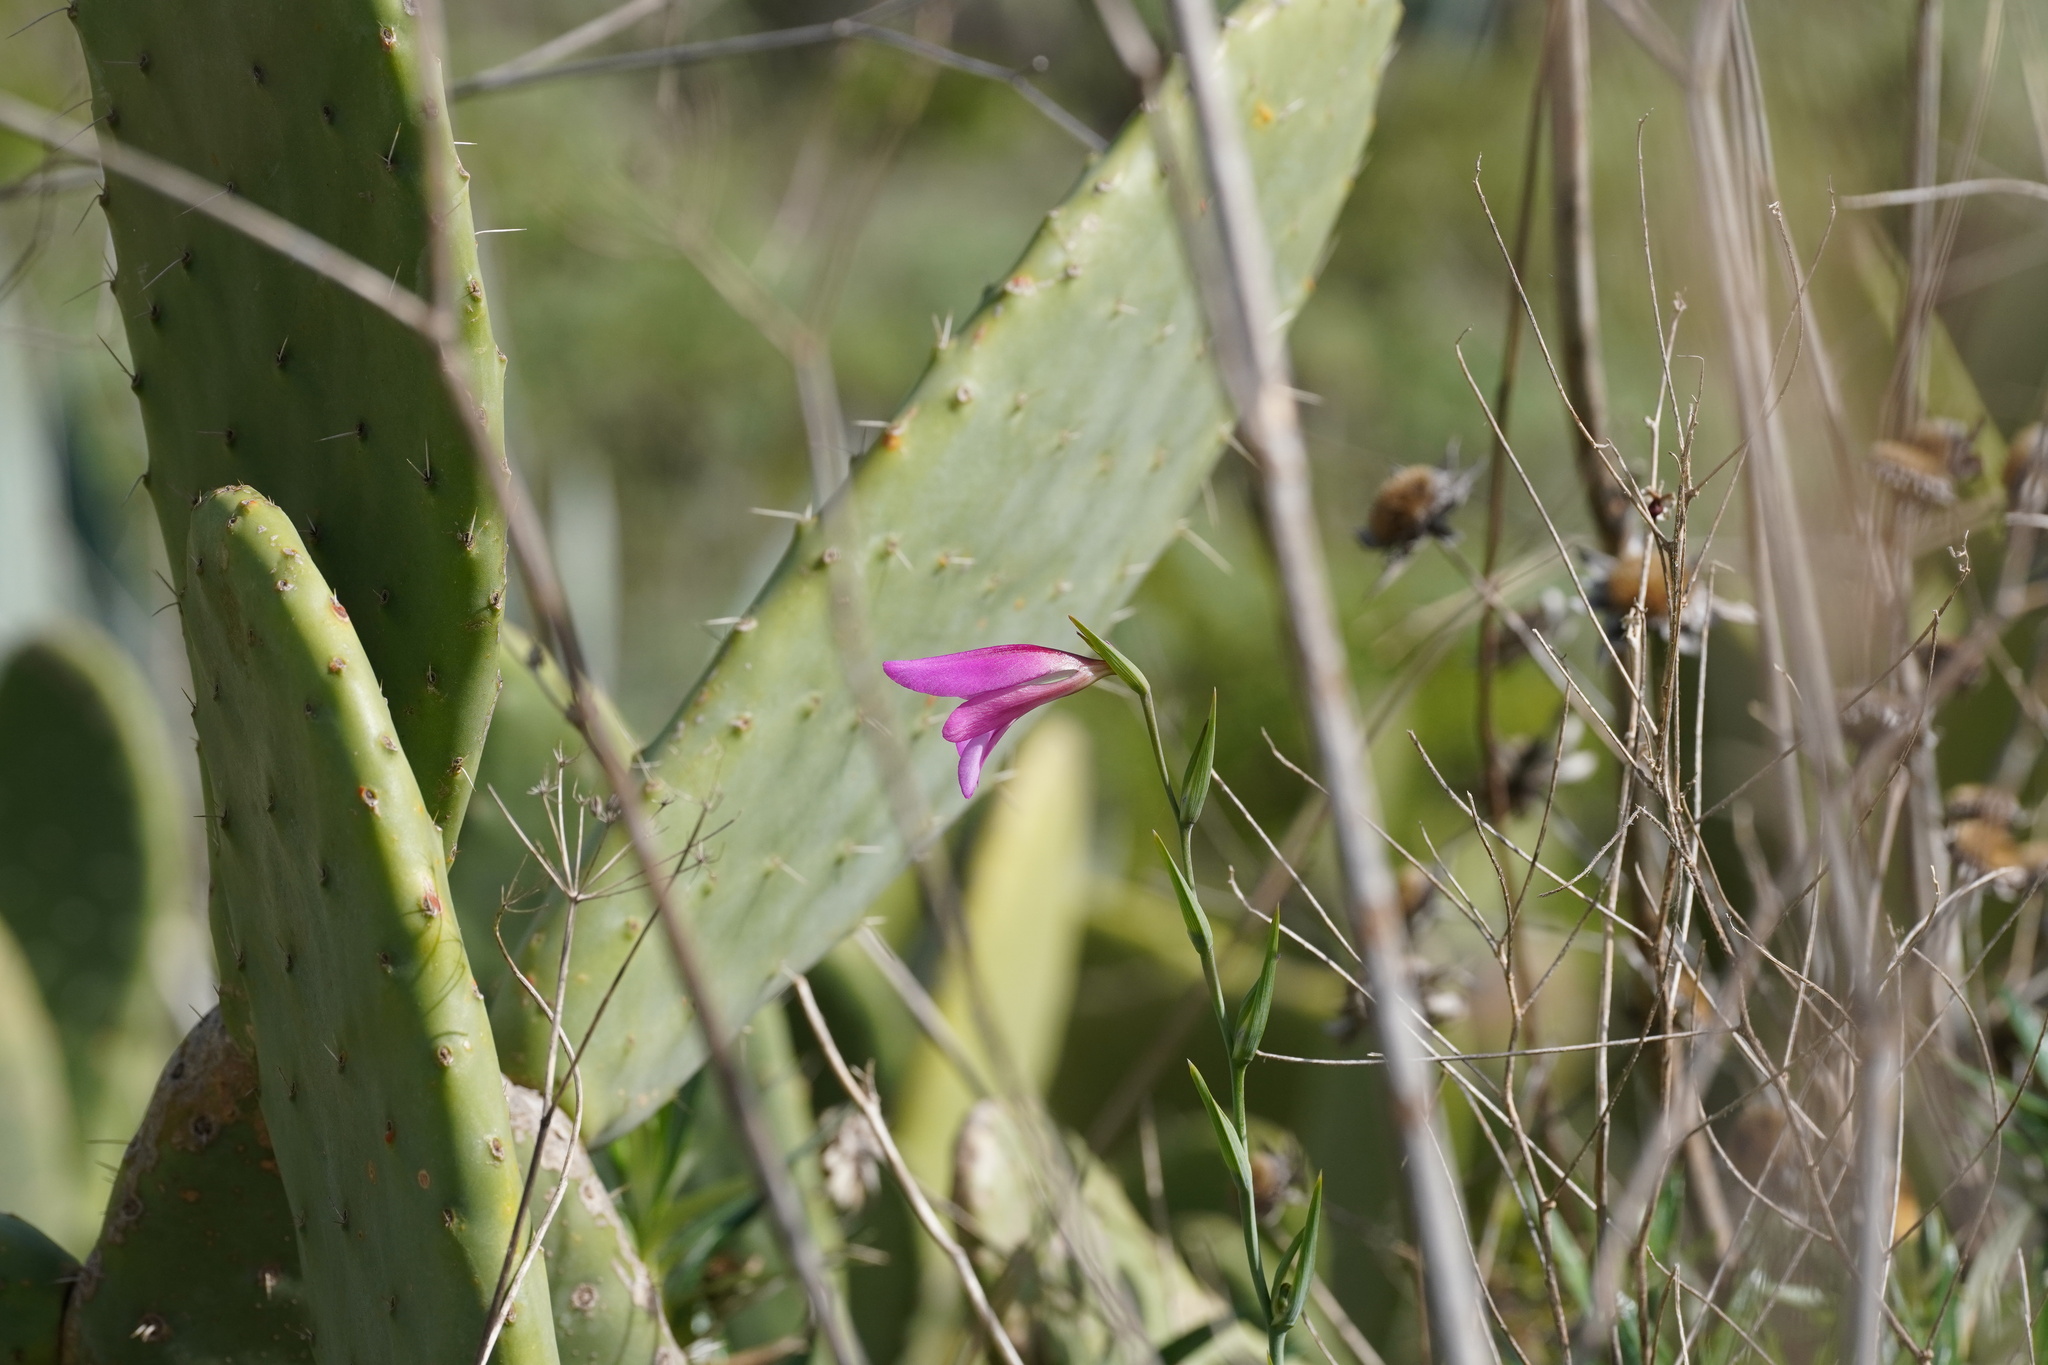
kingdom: Plantae
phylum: Tracheophyta
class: Liliopsida
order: Asparagales
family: Iridaceae
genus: Gladiolus
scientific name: Gladiolus italicus
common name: Field gladiolus
